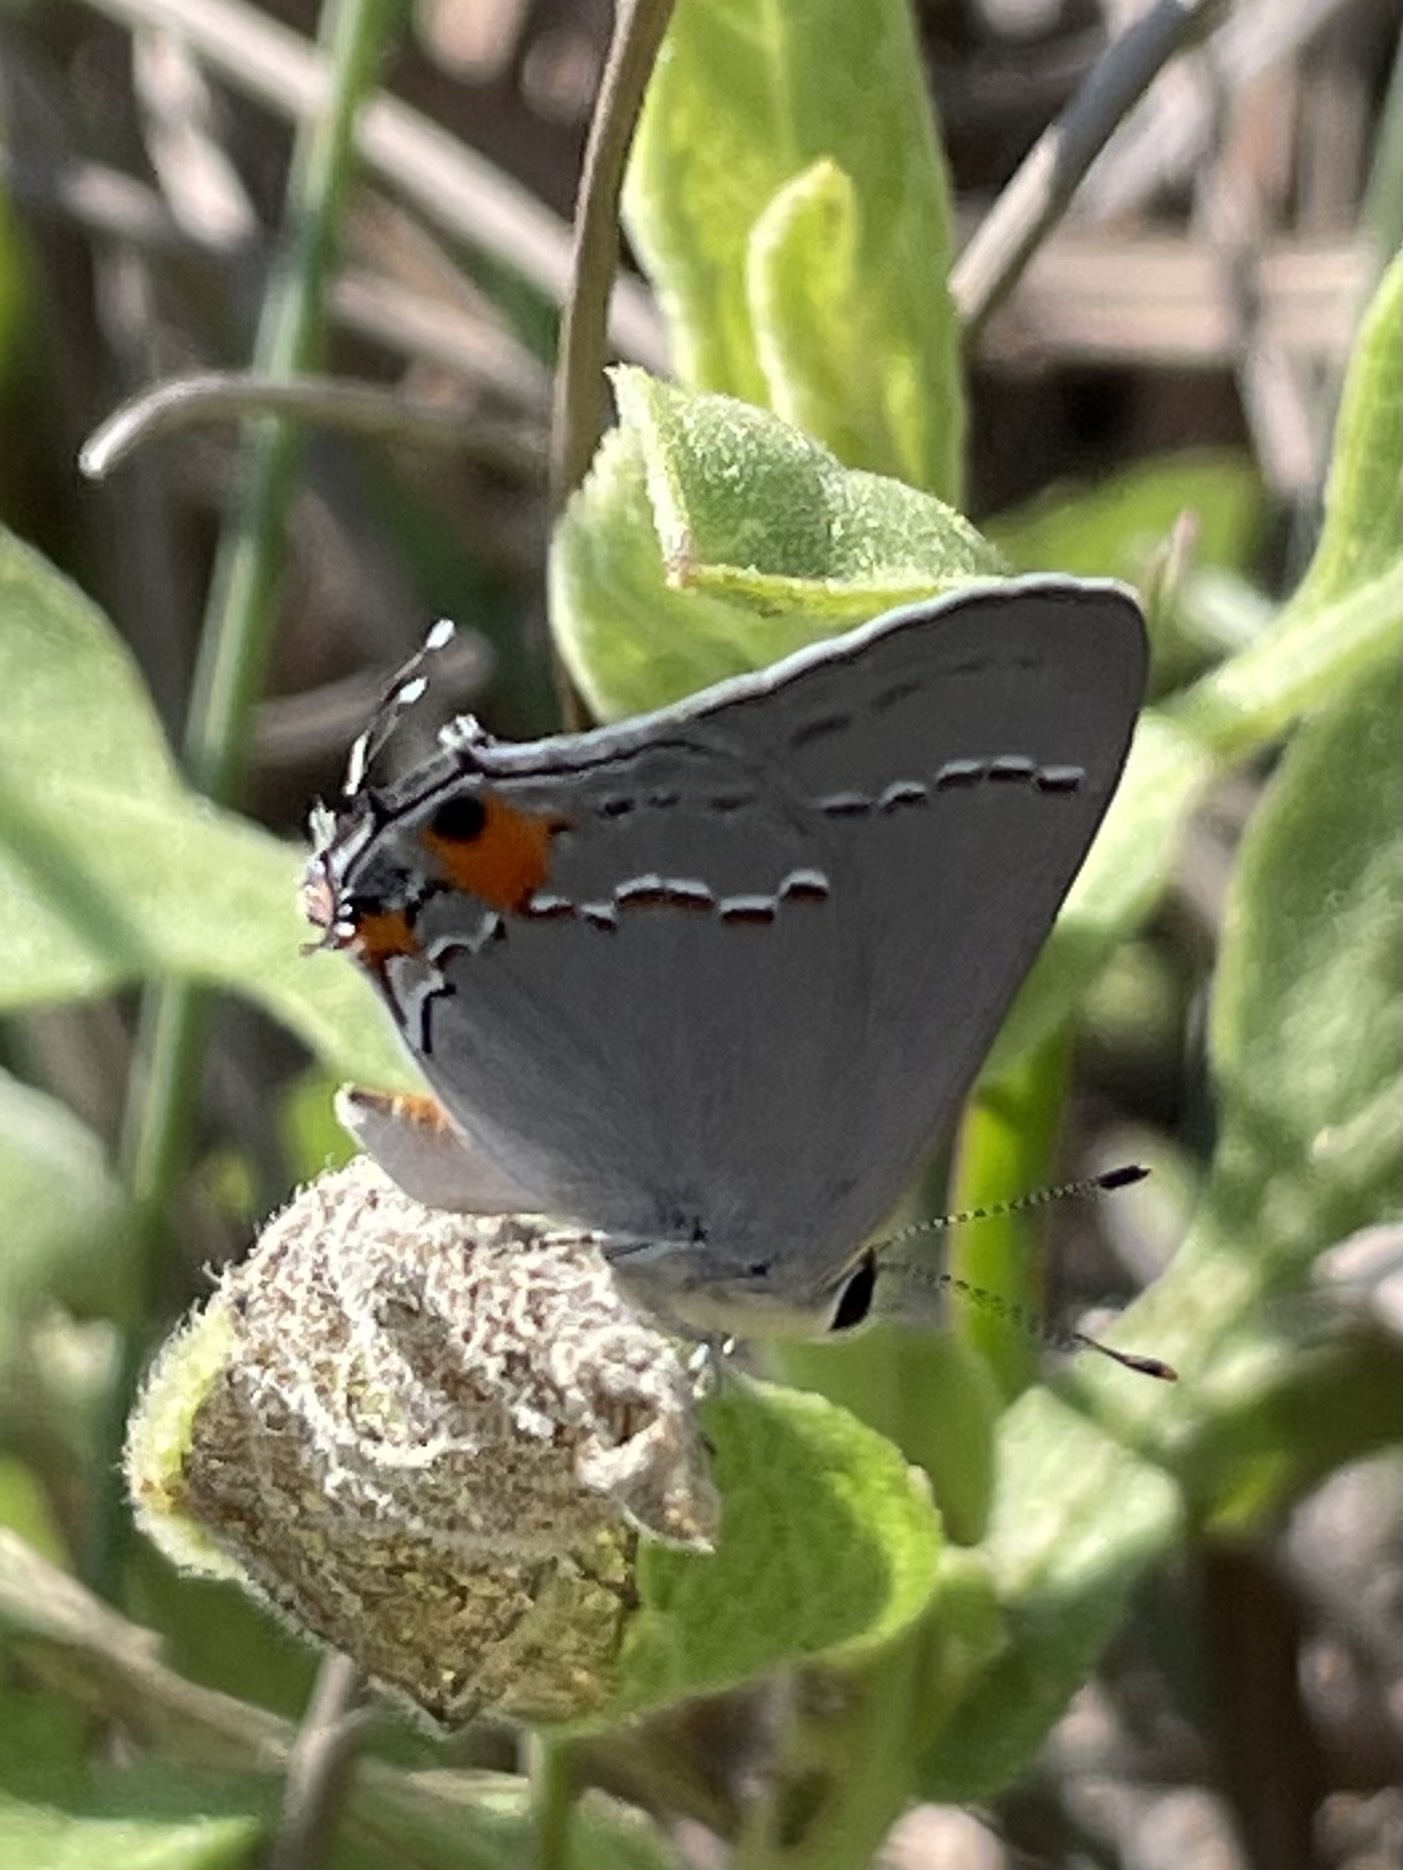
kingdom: Animalia
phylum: Arthropoda
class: Insecta
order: Lepidoptera
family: Lycaenidae
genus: Strymon
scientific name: Strymon melinus
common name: Gray hairstreak
